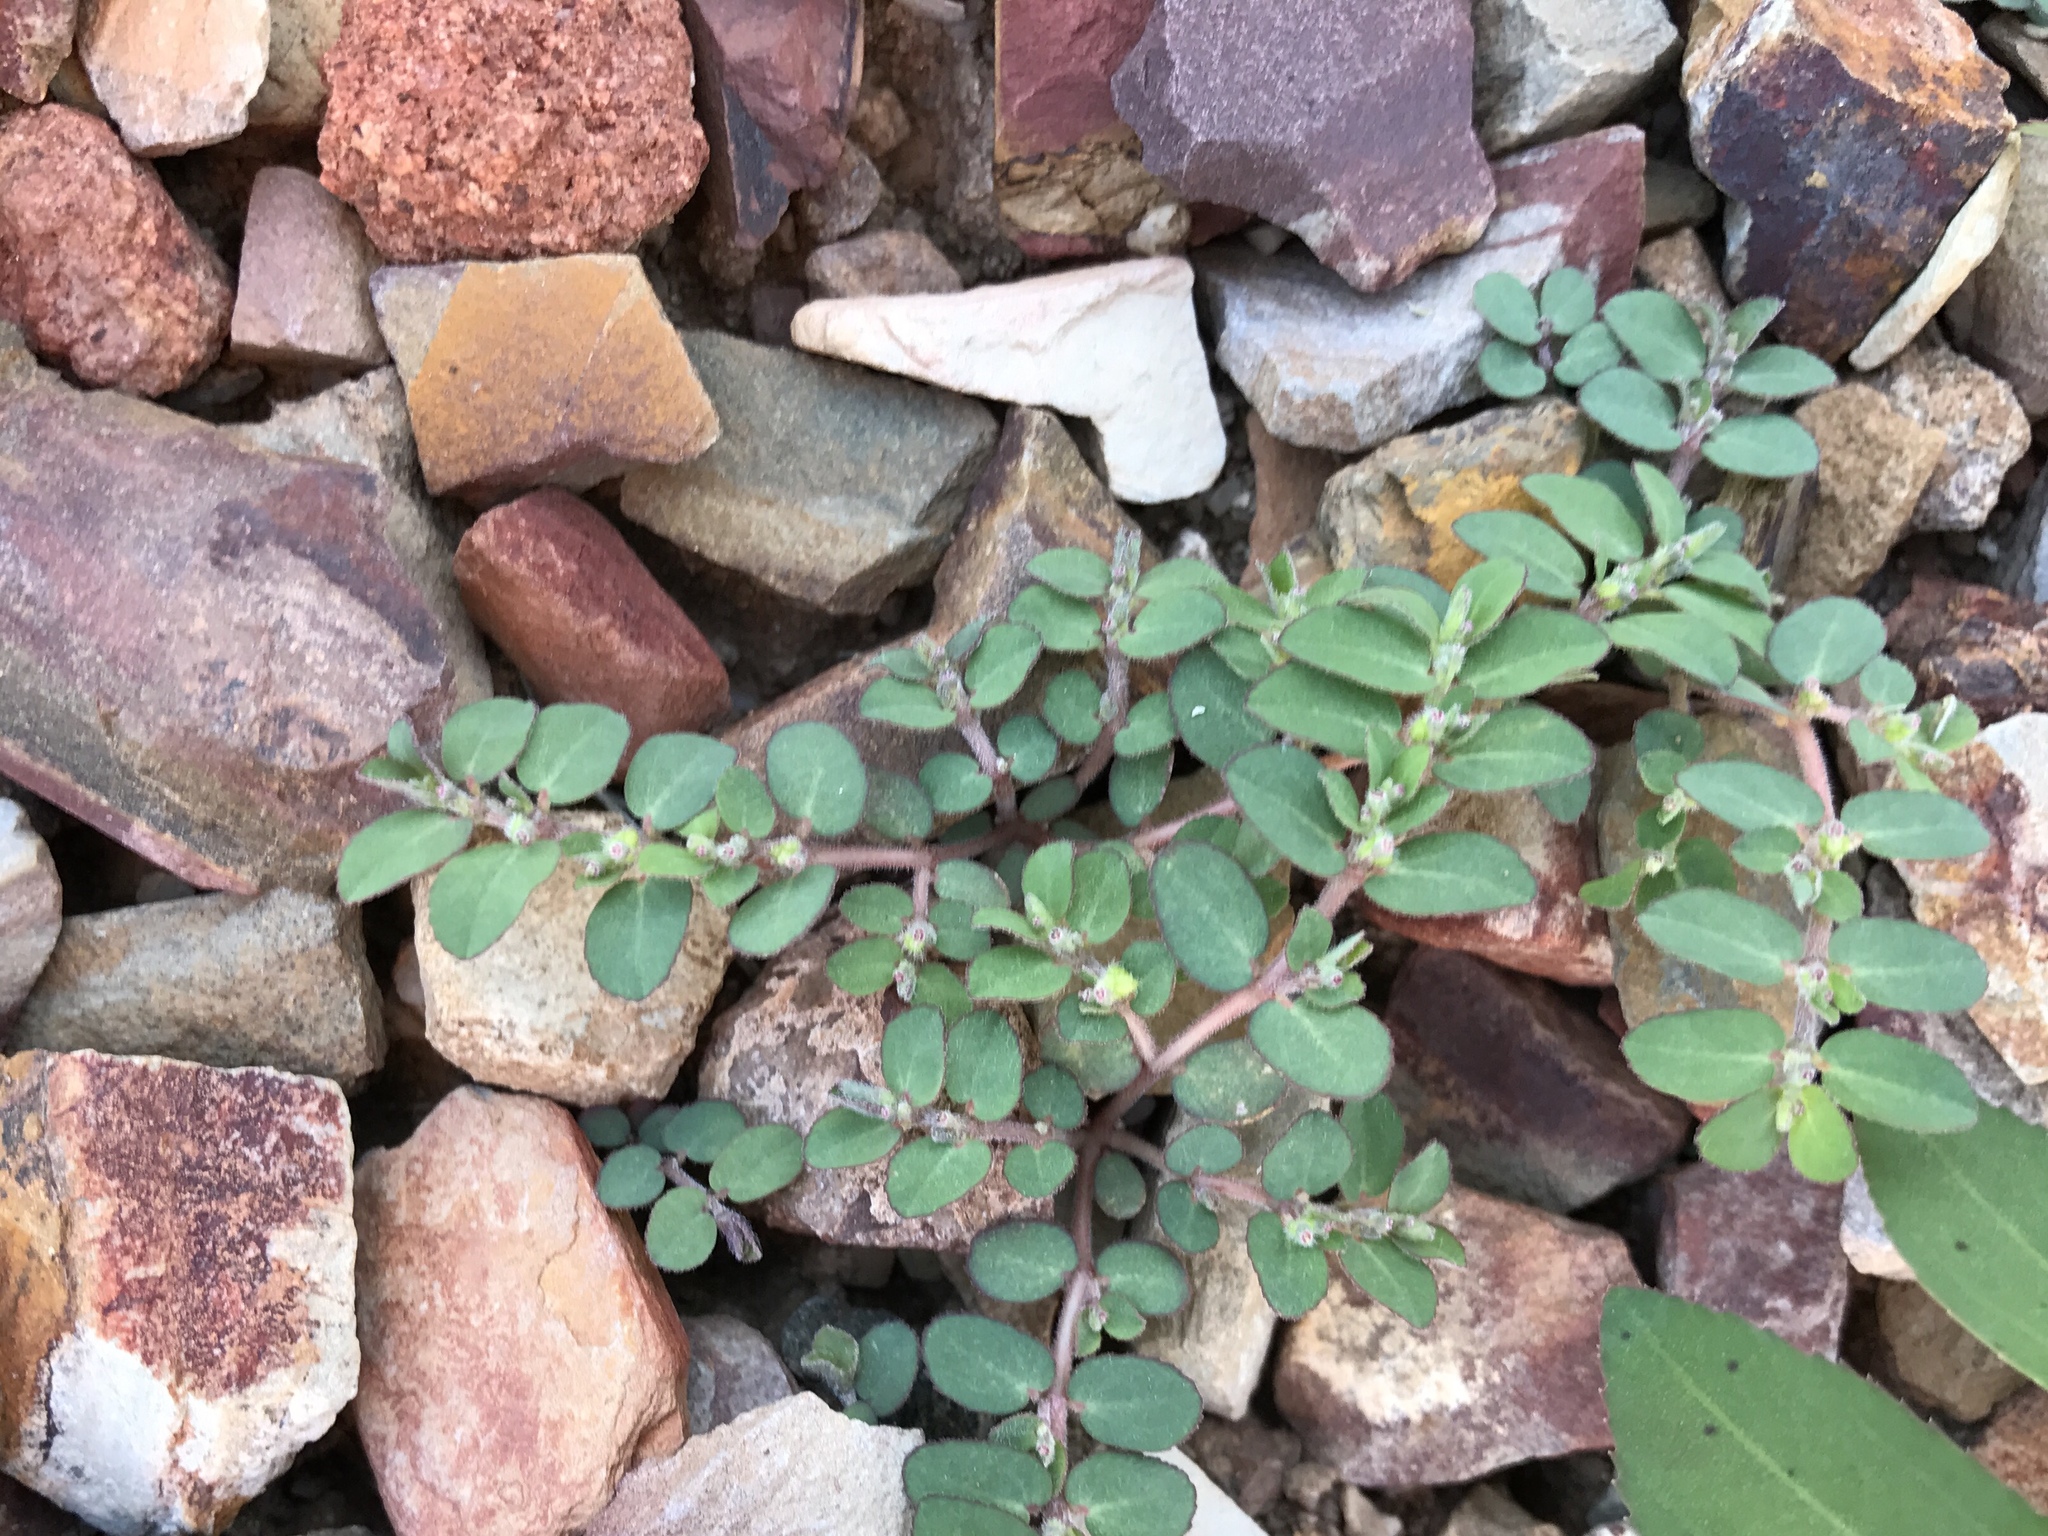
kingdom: Plantae
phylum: Tracheophyta
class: Magnoliopsida
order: Malpighiales
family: Euphorbiaceae
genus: Euphorbia
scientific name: Euphorbia prostrata
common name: Prostrate sandmat
